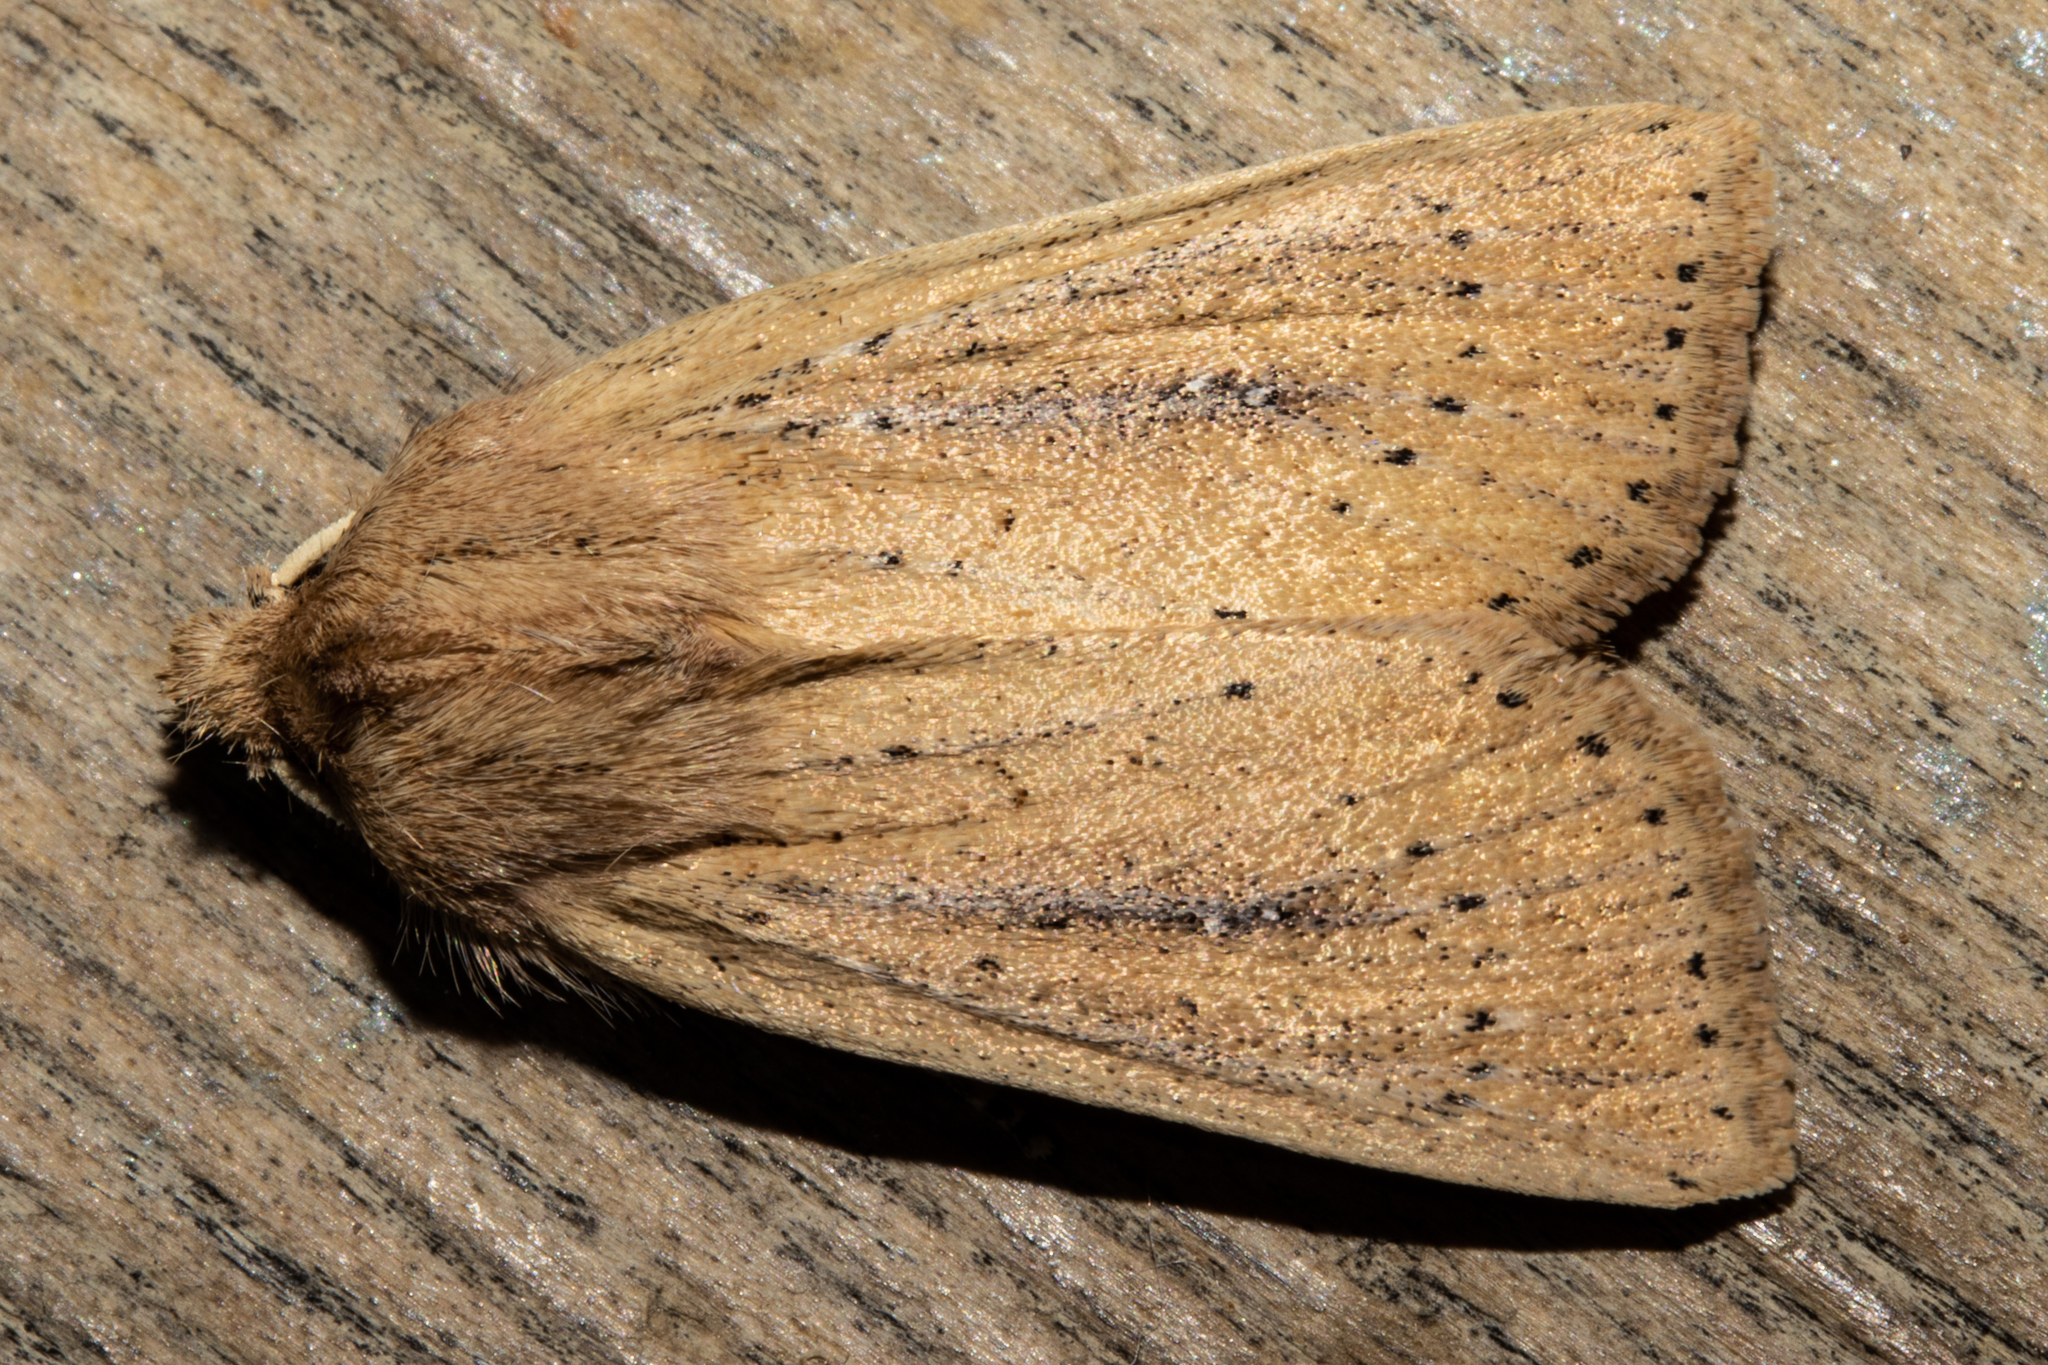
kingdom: Animalia
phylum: Arthropoda
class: Insecta
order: Lepidoptera
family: Noctuidae
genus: Ichneutica
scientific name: Ichneutica
